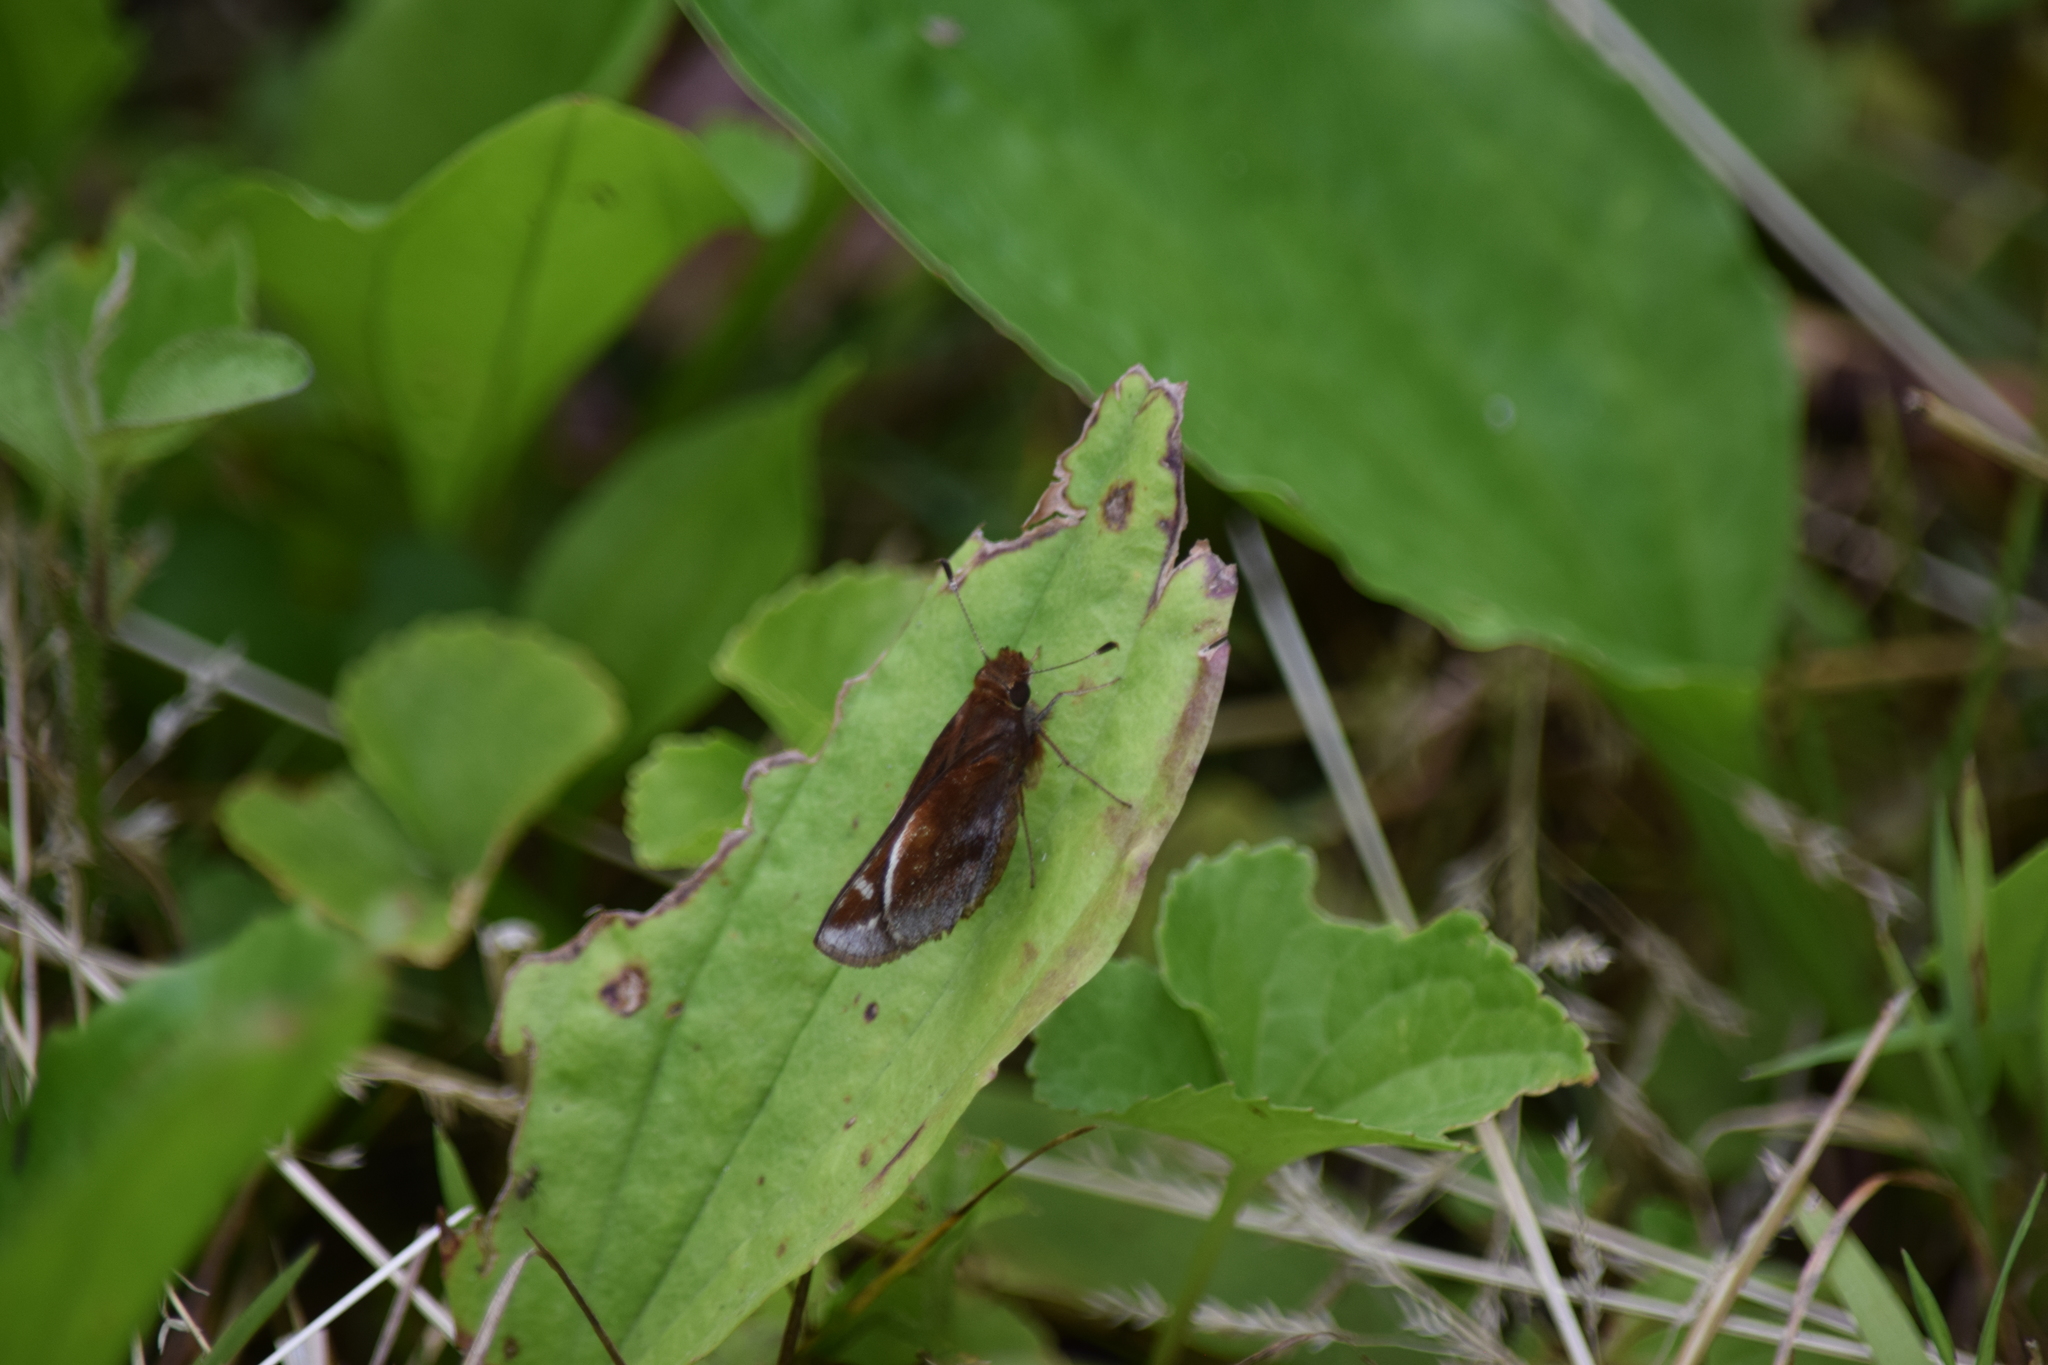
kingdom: Animalia
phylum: Arthropoda
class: Insecta
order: Lepidoptera
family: Hesperiidae
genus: Lon
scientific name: Lon zabulon
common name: Zabulon skipper
